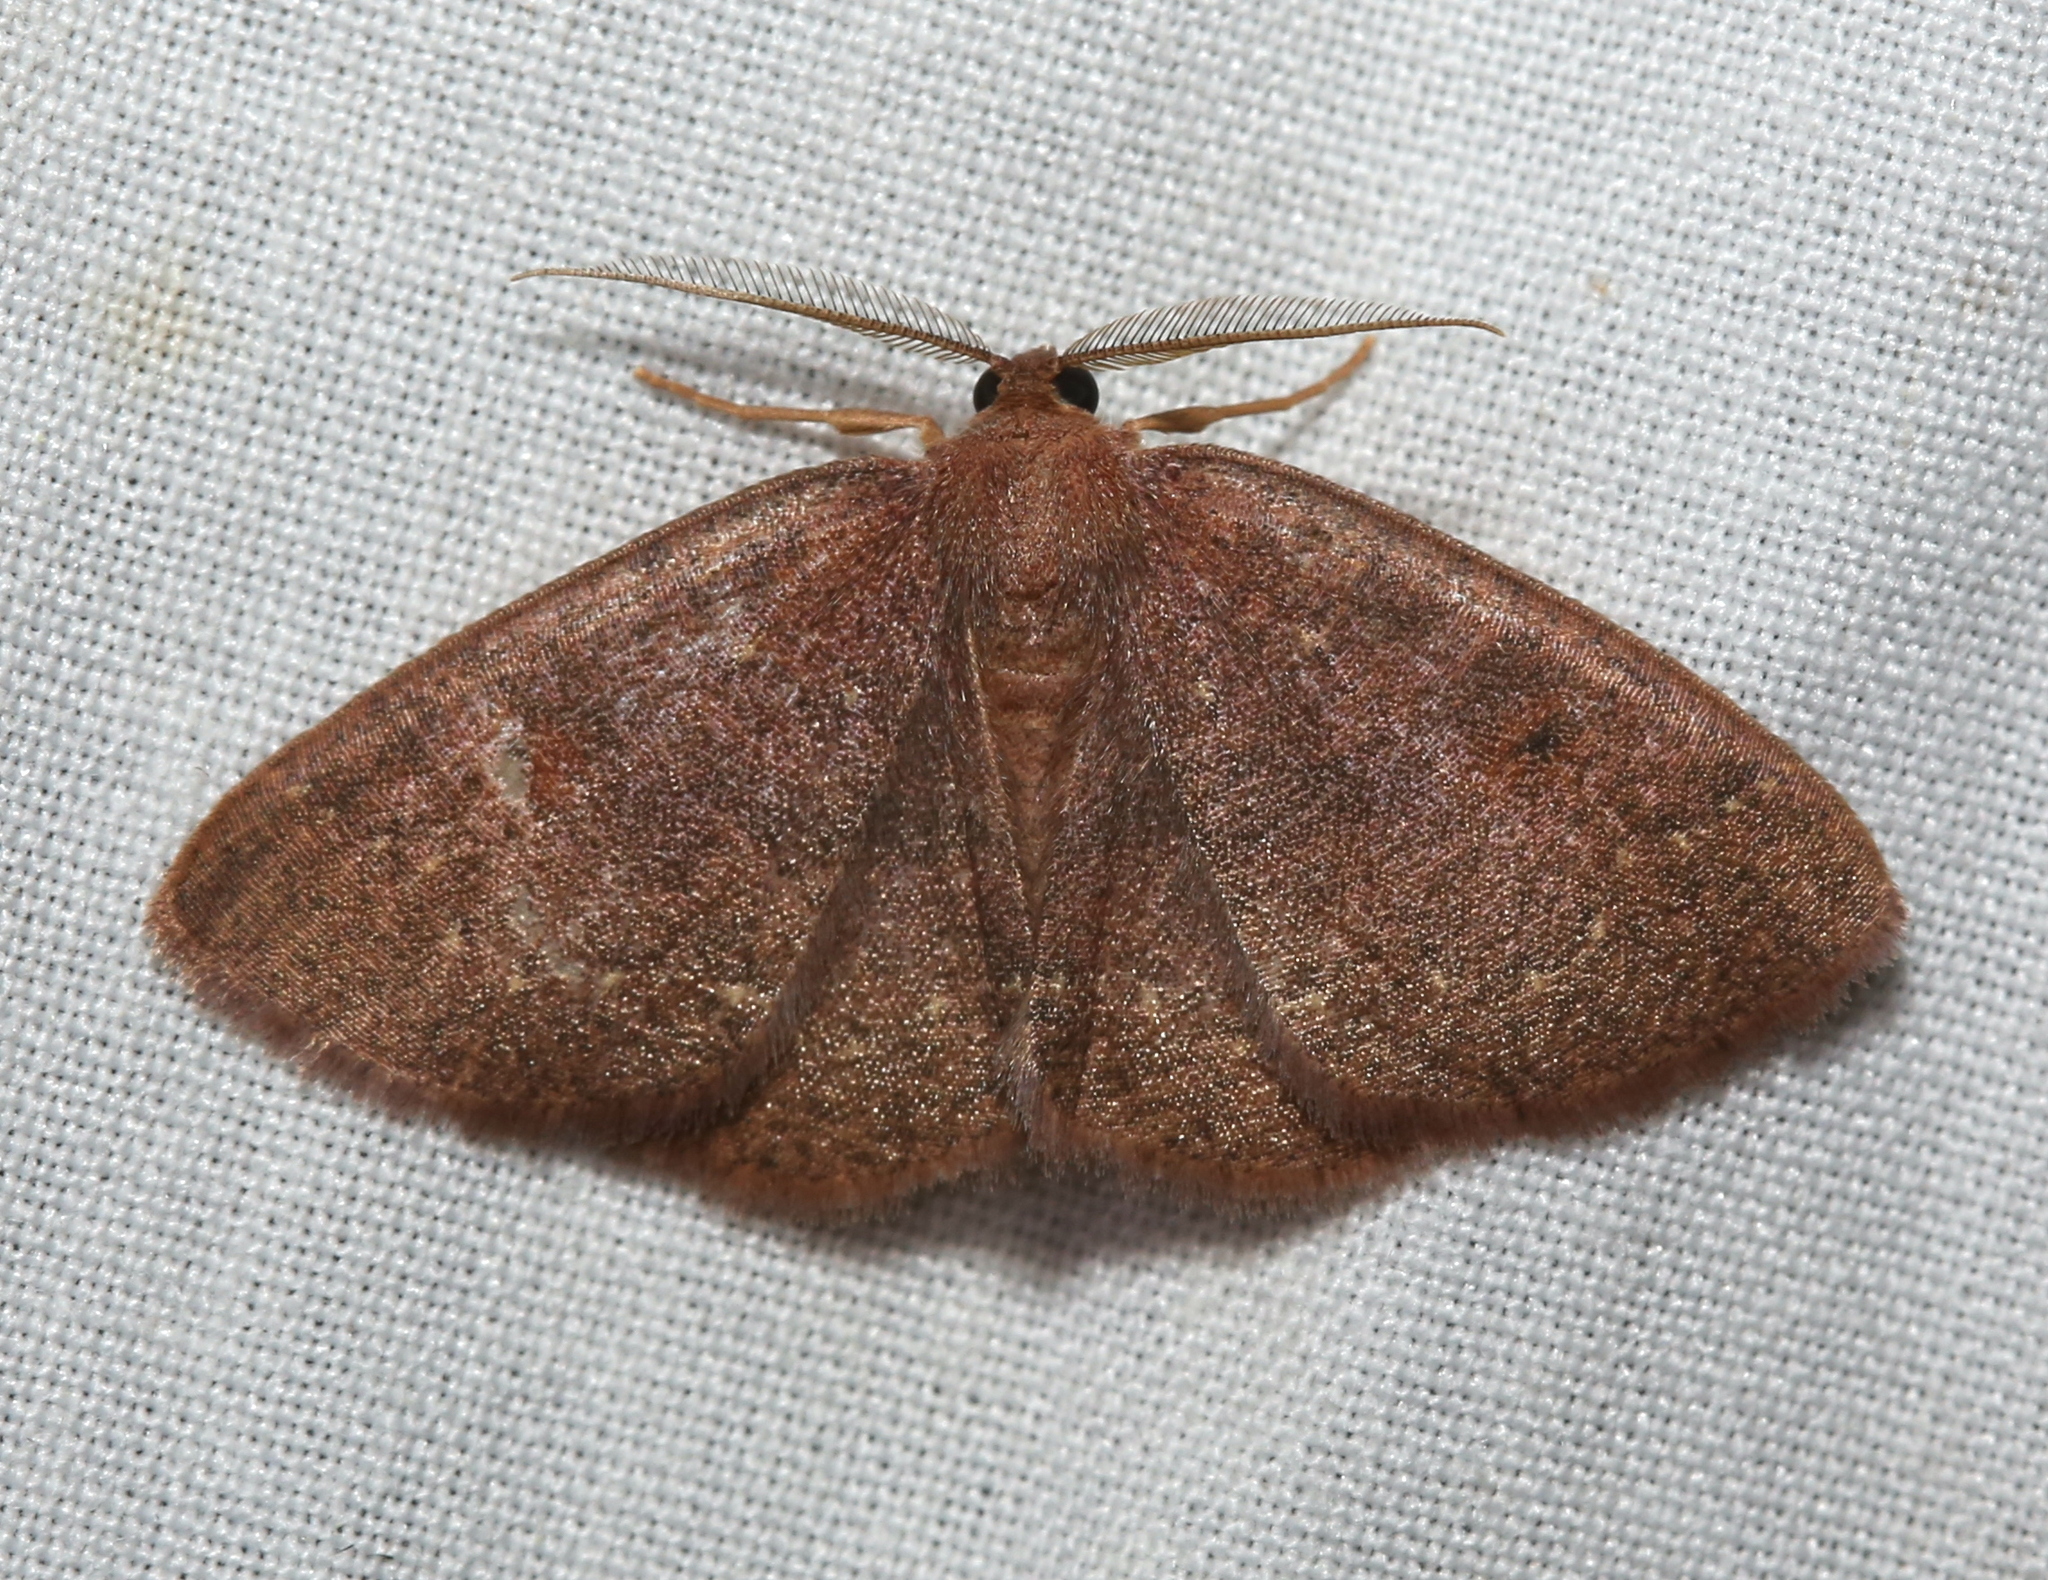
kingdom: Animalia
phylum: Arthropoda
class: Insecta
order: Lepidoptera
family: Geometridae
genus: Ilexia
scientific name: Ilexia intractata
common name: Black-dotted ruddy moth
